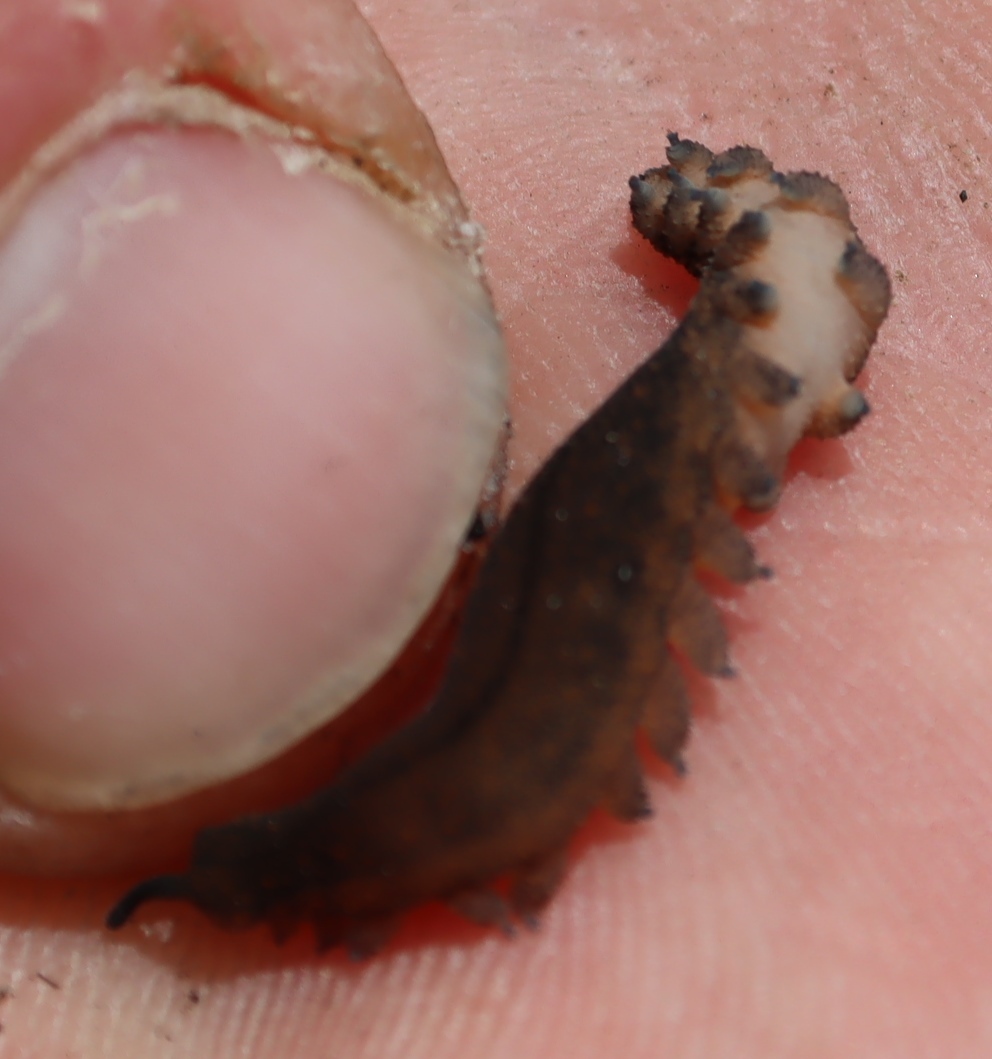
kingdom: Animalia
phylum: Onychophora
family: Peripatopsidae
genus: Peripatopsis
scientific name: Peripatopsis lawrencei
